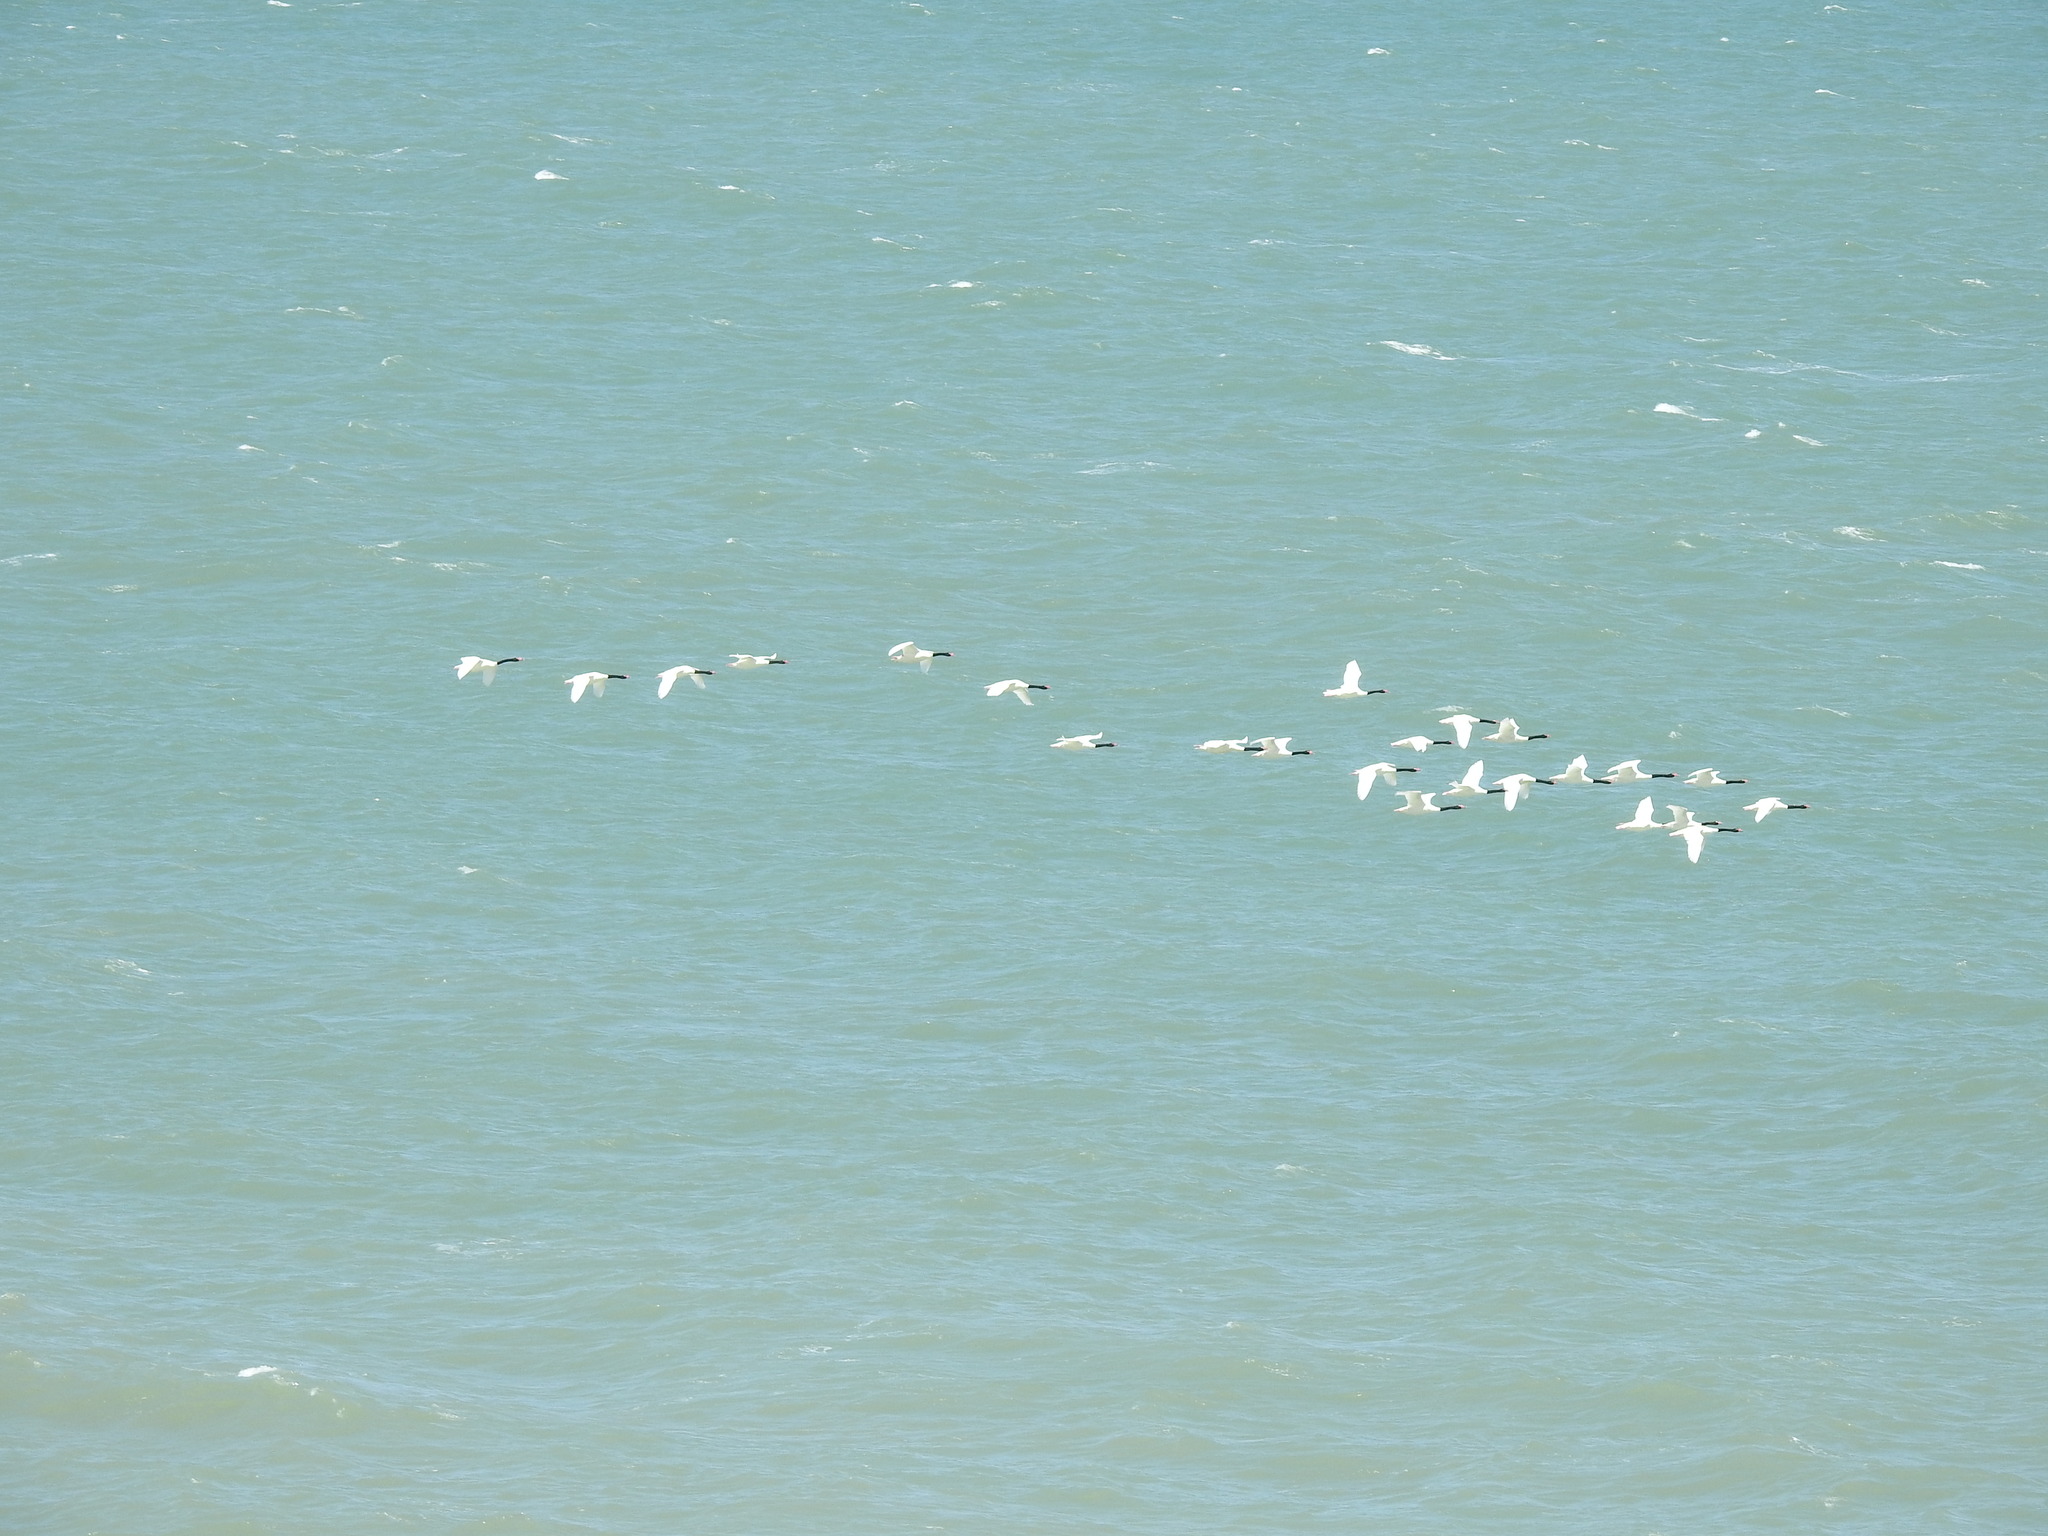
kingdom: Animalia
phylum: Chordata
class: Aves
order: Anseriformes
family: Anatidae
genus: Cygnus
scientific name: Cygnus melancoryphus
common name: Black-necked swan
